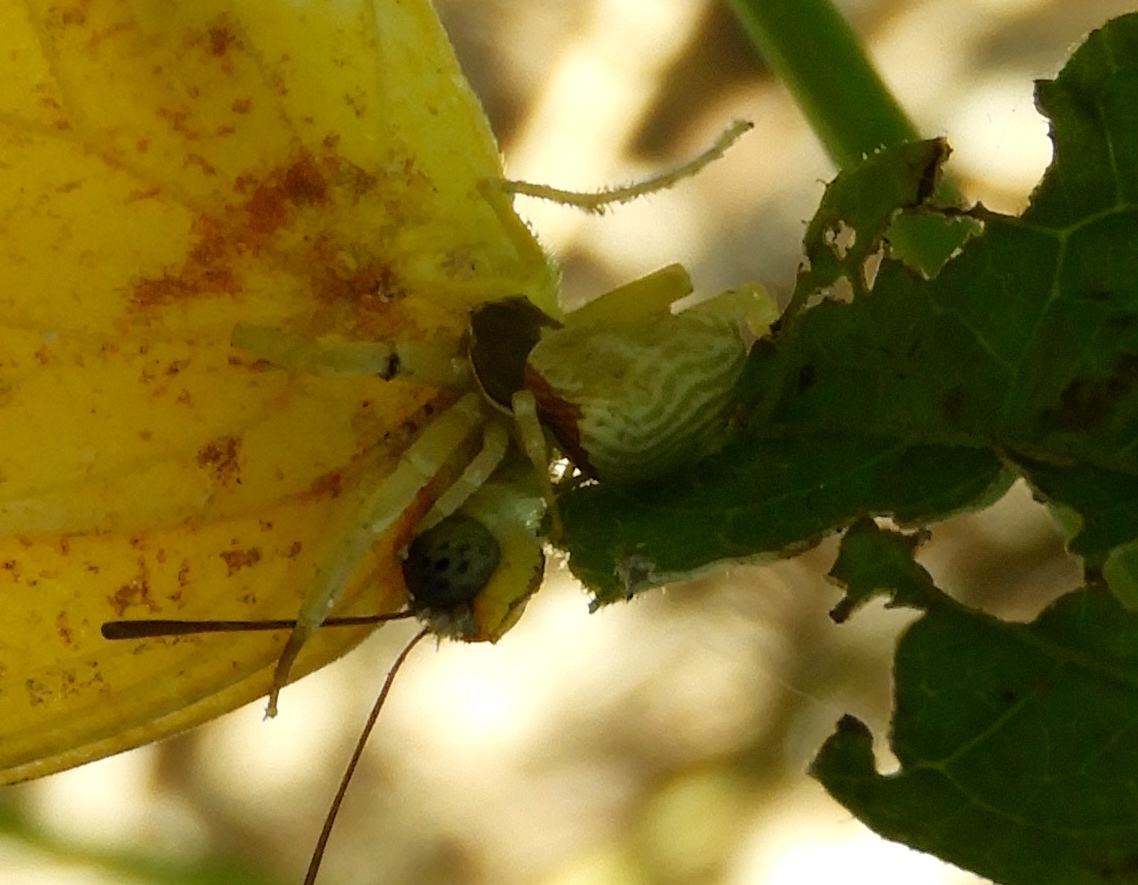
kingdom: Animalia
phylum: Arthropoda
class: Arachnida
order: Araneae
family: Thomisidae
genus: Misumenoides
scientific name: Misumenoides
